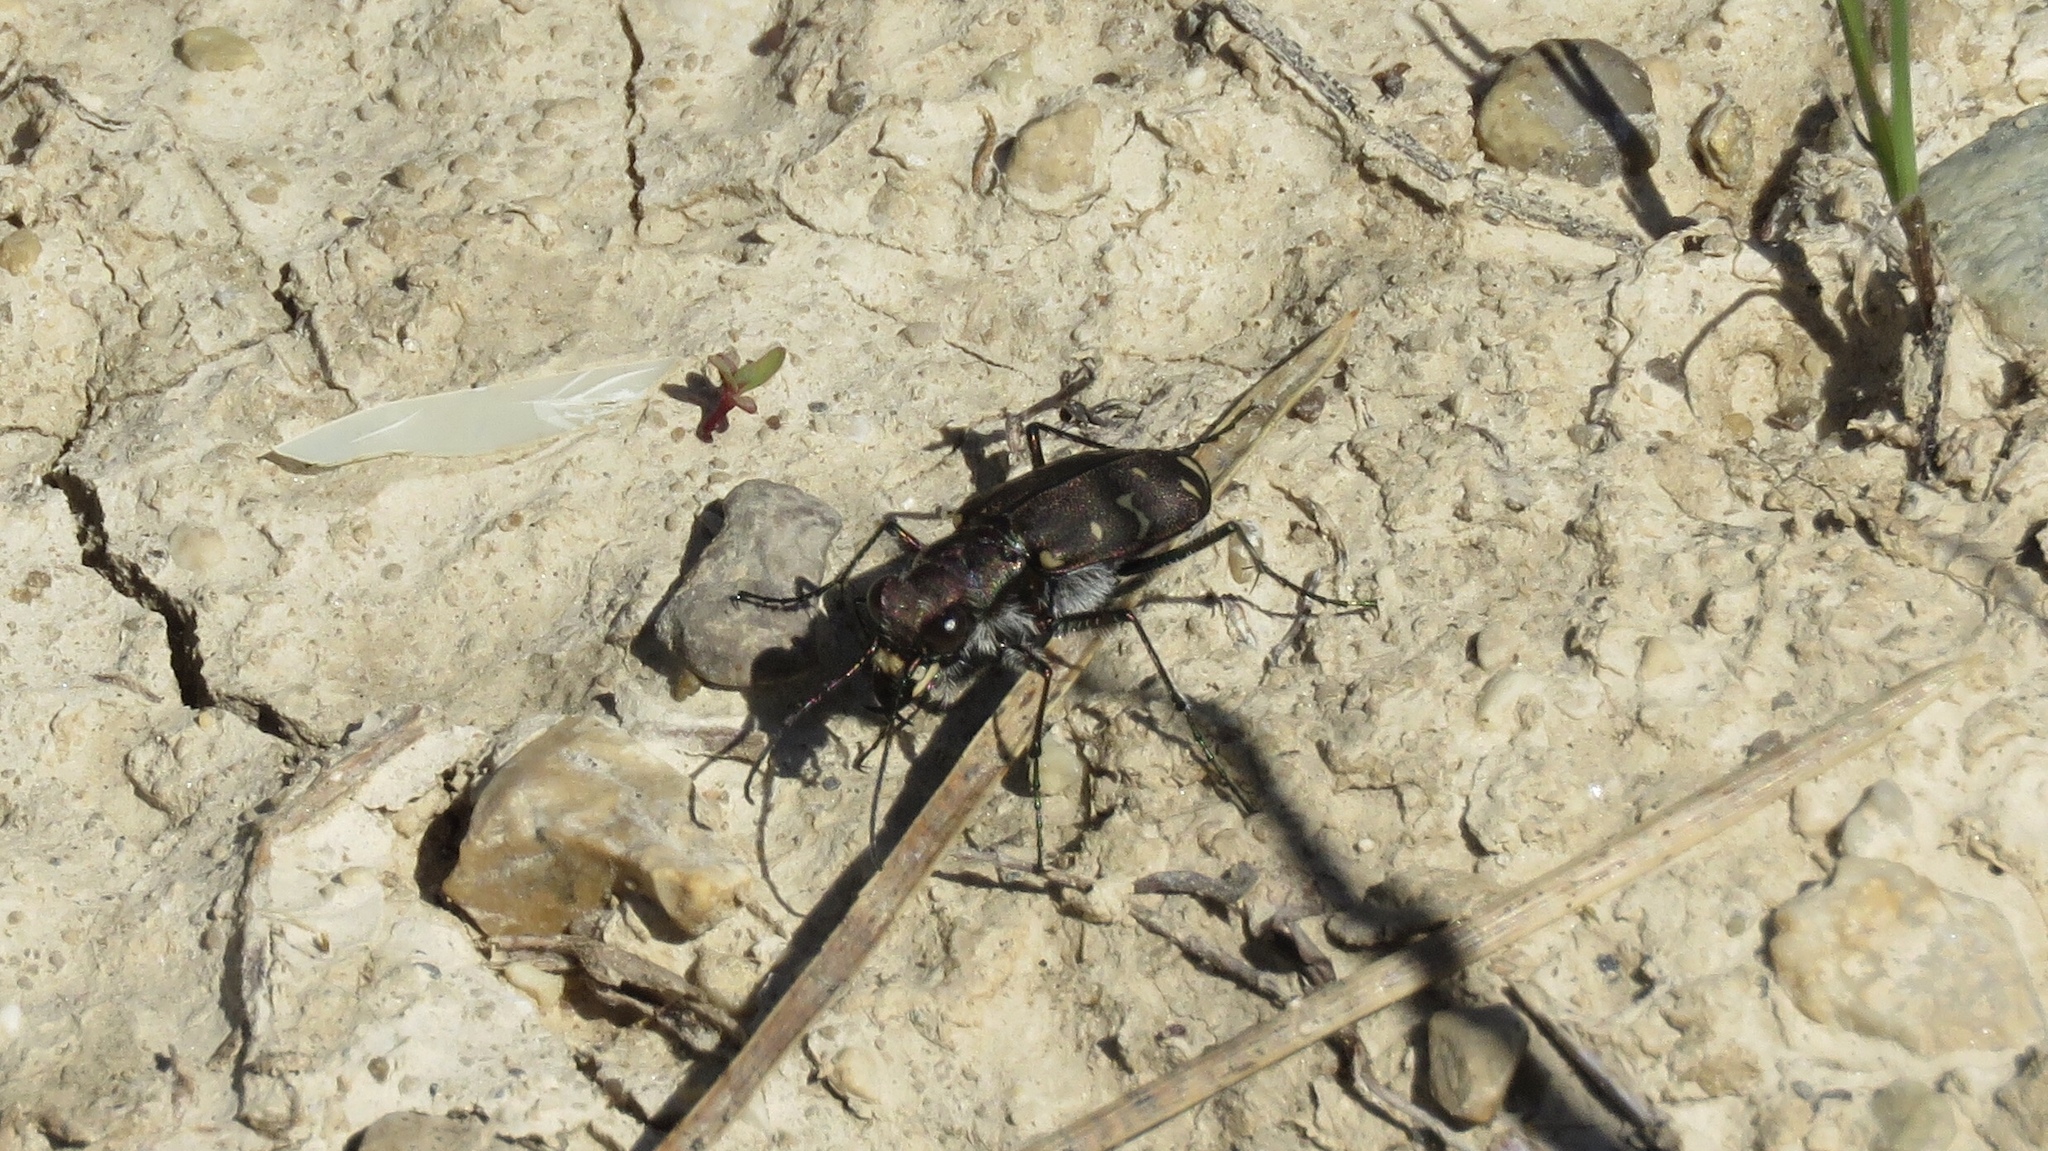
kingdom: Animalia
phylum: Arthropoda
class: Insecta
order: Coleoptera
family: Carabidae
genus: Cicindela
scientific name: Cicindela duodecimguttata
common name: Twelve-spotted tiger beetle
